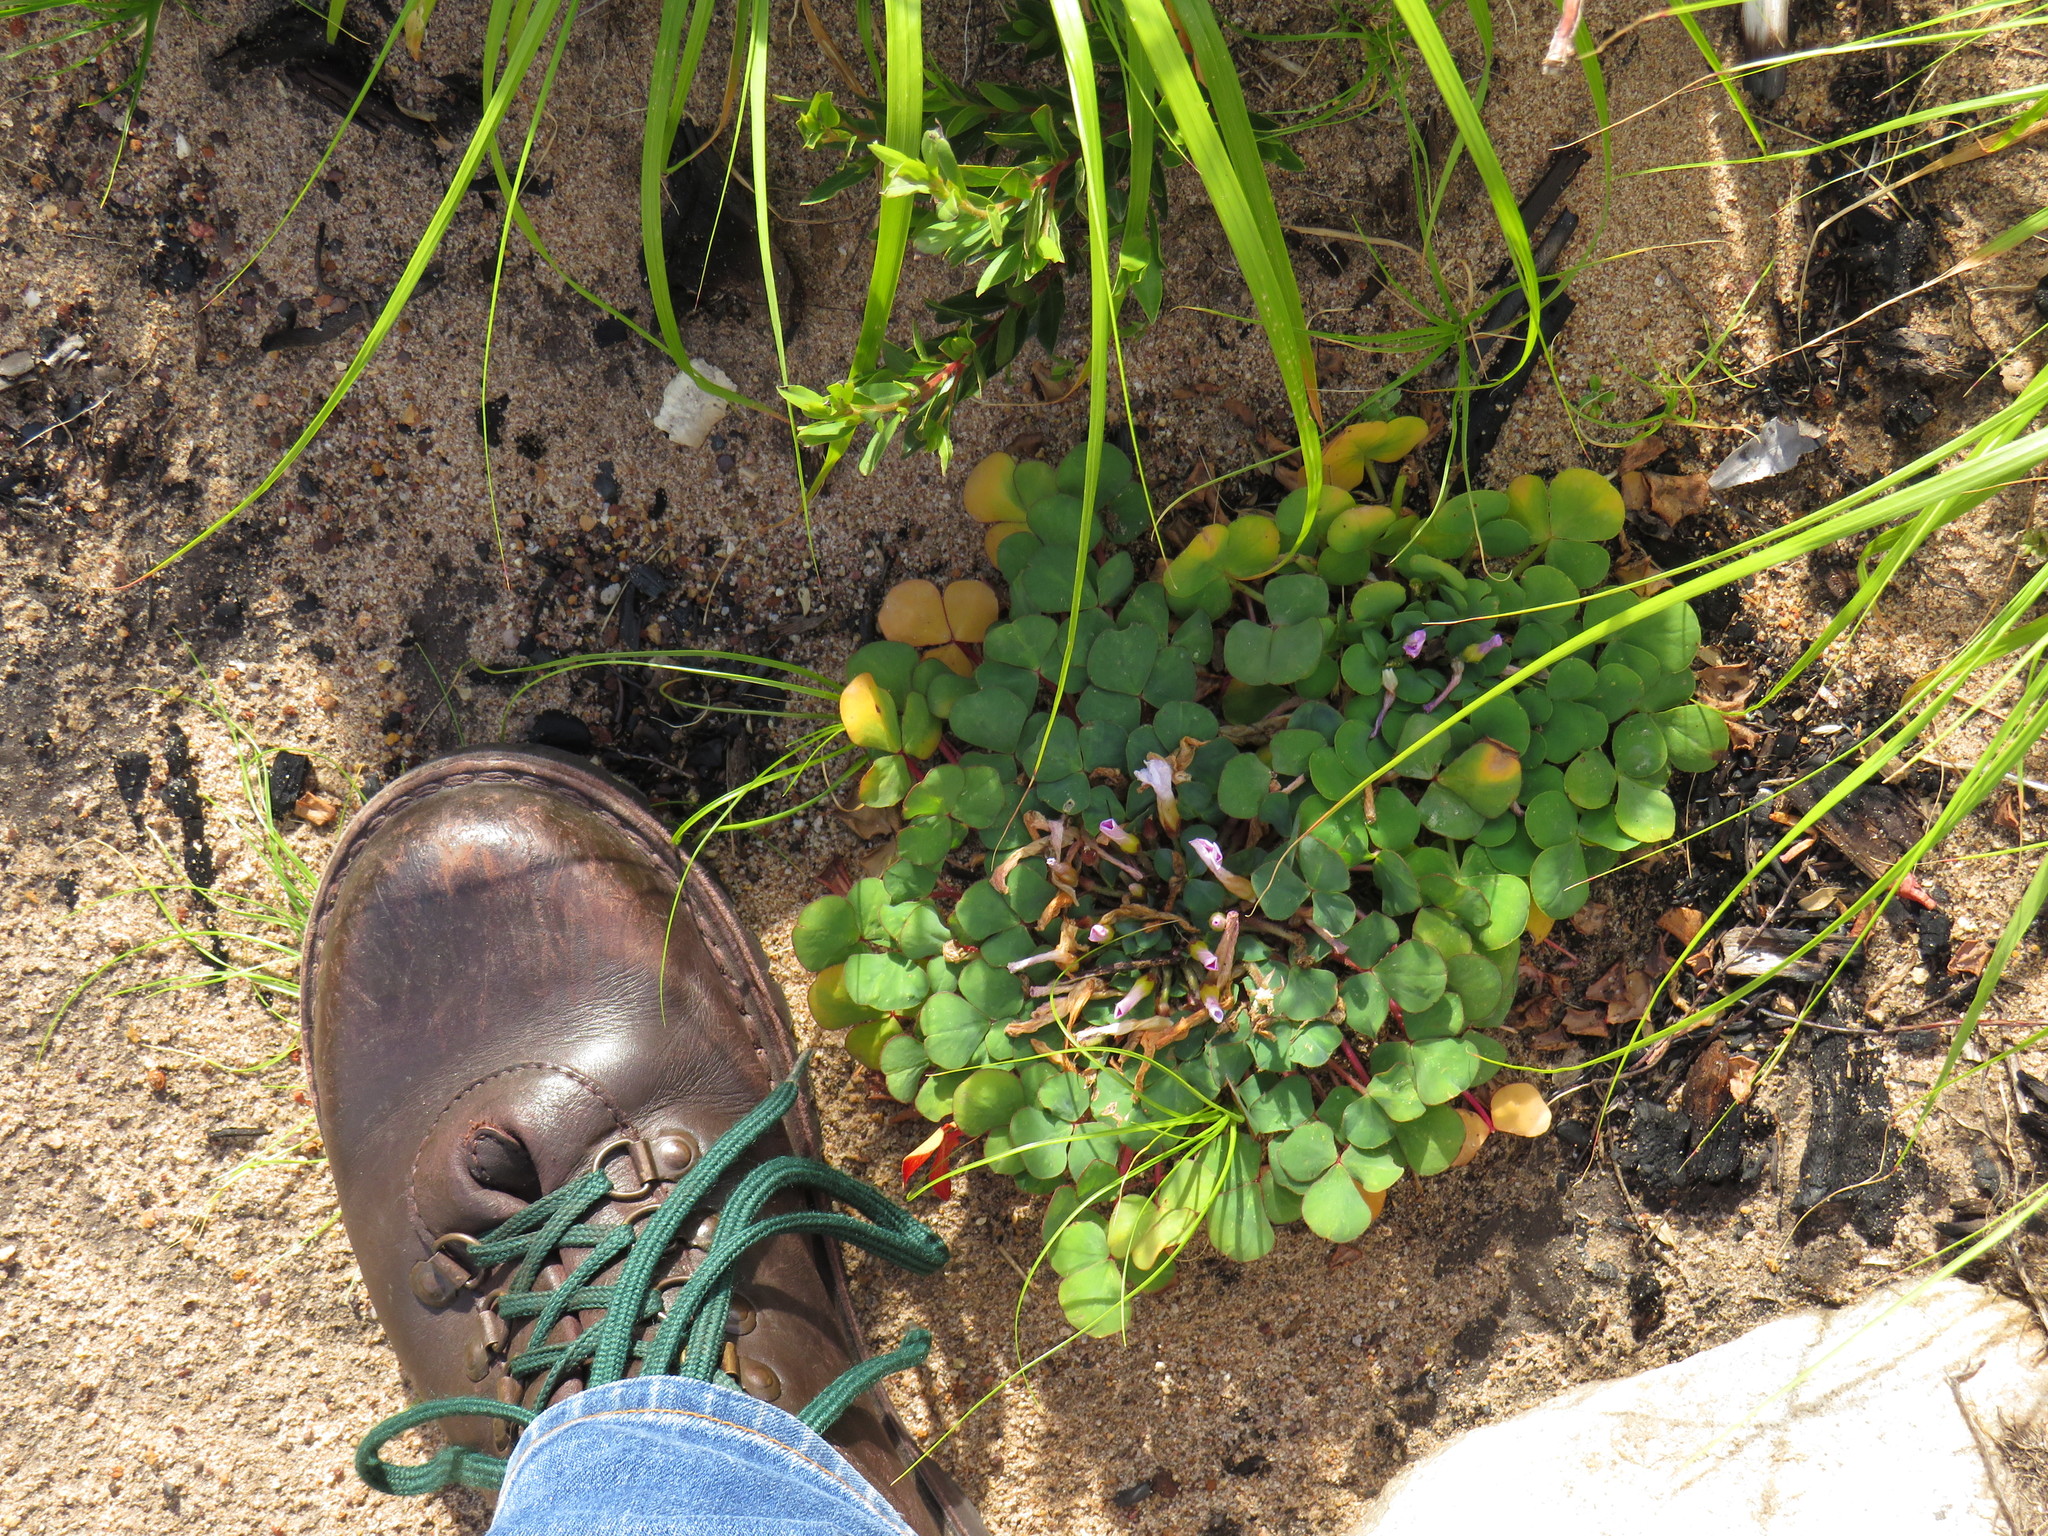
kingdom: Plantae
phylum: Tracheophyta
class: Magnoliopsida
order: Oxalidales
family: Oxalidaceae
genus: Oxalis
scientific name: Oxalis purpurea
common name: Purple woodsorrel
